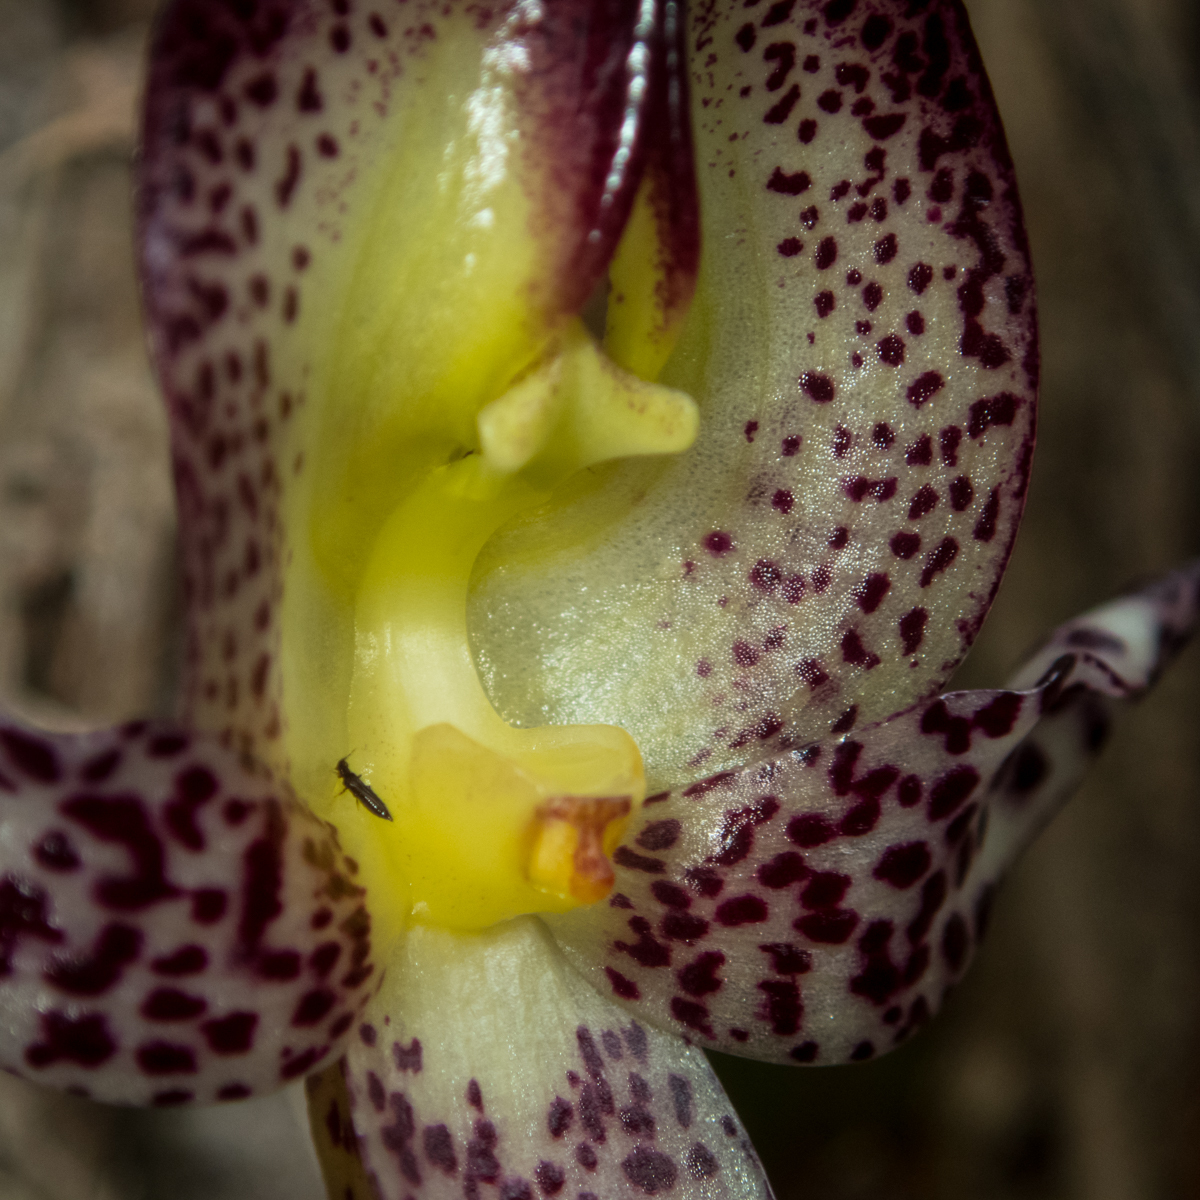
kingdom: Plantae
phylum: Tracheophyta
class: Liliopsida
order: Asparagales
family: Orchidaceae
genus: Bulbophyllum
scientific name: Bulbophyllum macranthum
